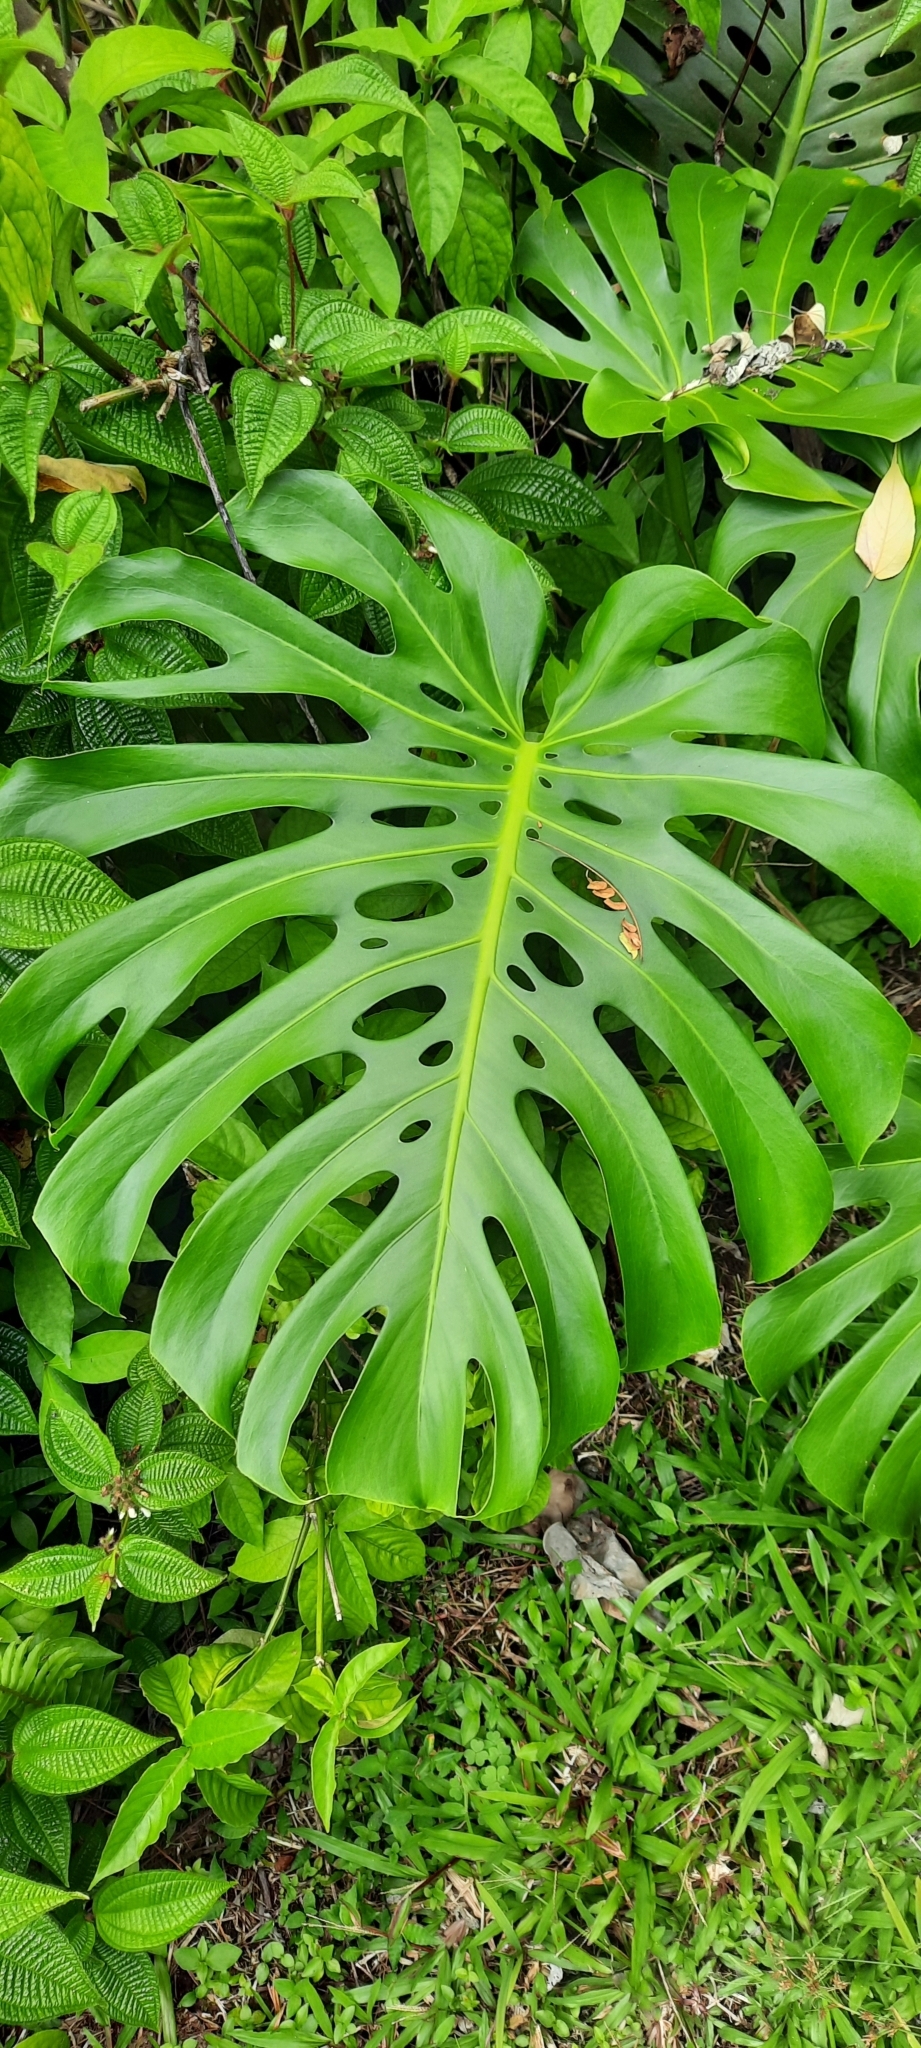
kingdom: Plantae
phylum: Tracheophyta
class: Liliopsida
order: Alismatales
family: Araceae
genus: Monstera
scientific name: Monstera deliciosa
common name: Cut-leaf-philodendron
